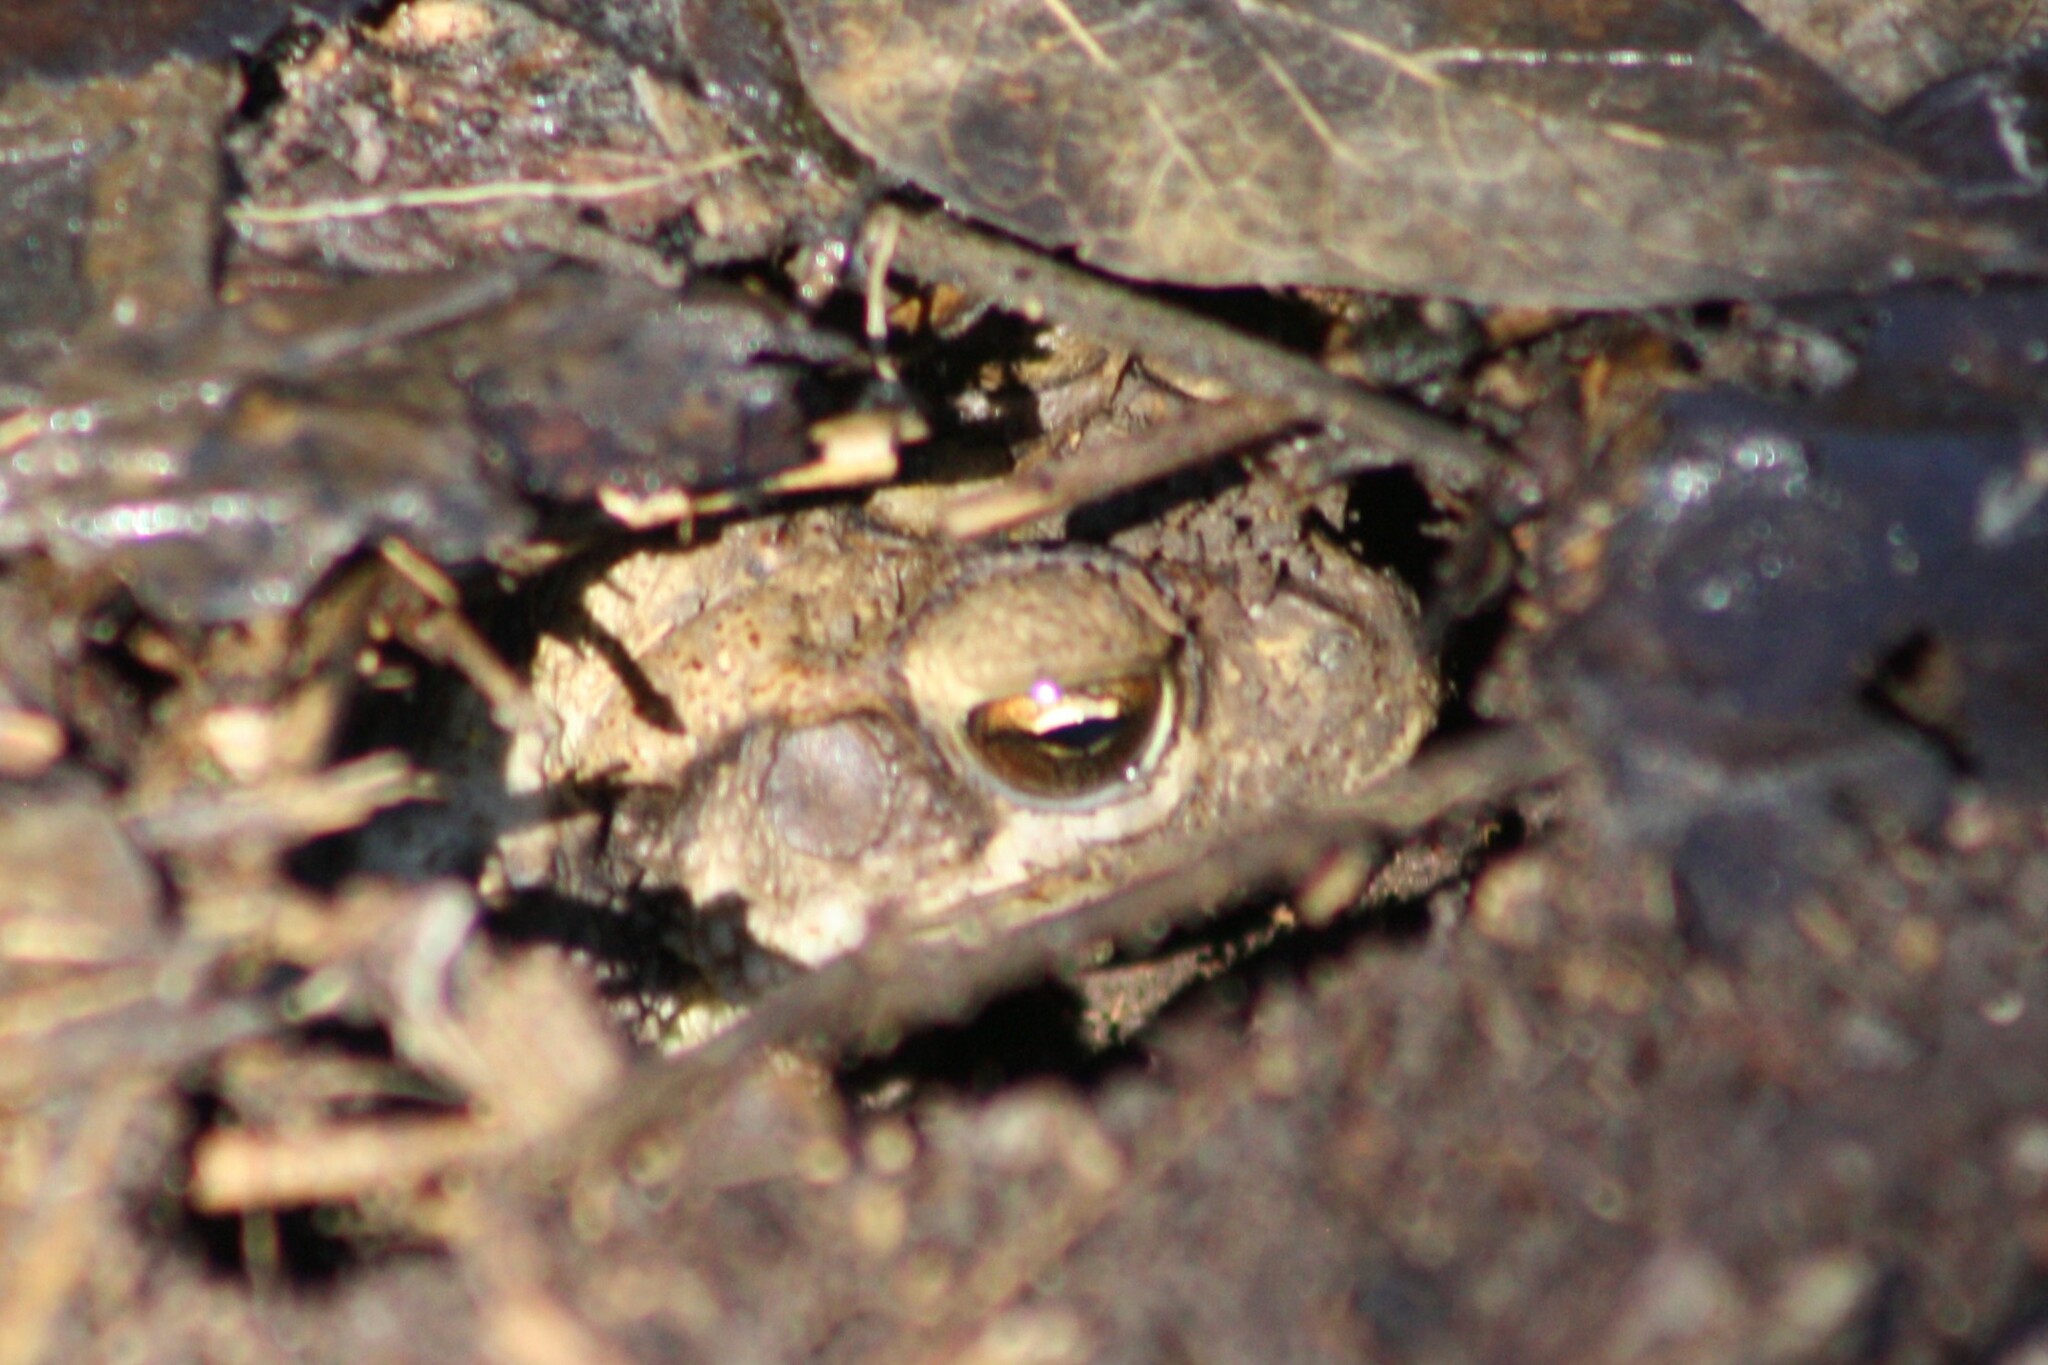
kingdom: Animalia
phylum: Chordata
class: Amphibia
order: Anura
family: Bufonidae
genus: Incilius
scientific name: Incilius nebulifer
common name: Gulf coast toad
